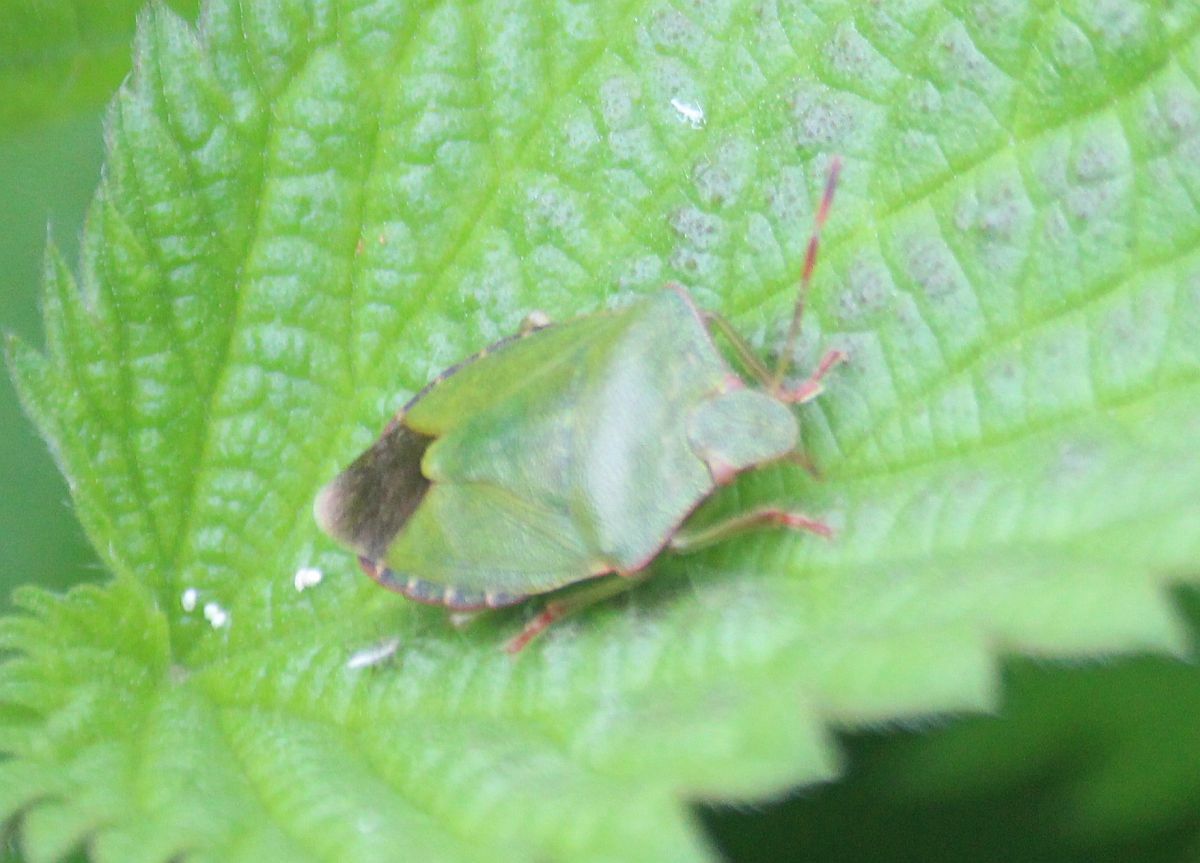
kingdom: Animalia
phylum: Arthropoda
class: Insecta
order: Hemiptera
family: Pentatomidae
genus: Palomena
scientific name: Palomena prasina
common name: Green shieldbug
